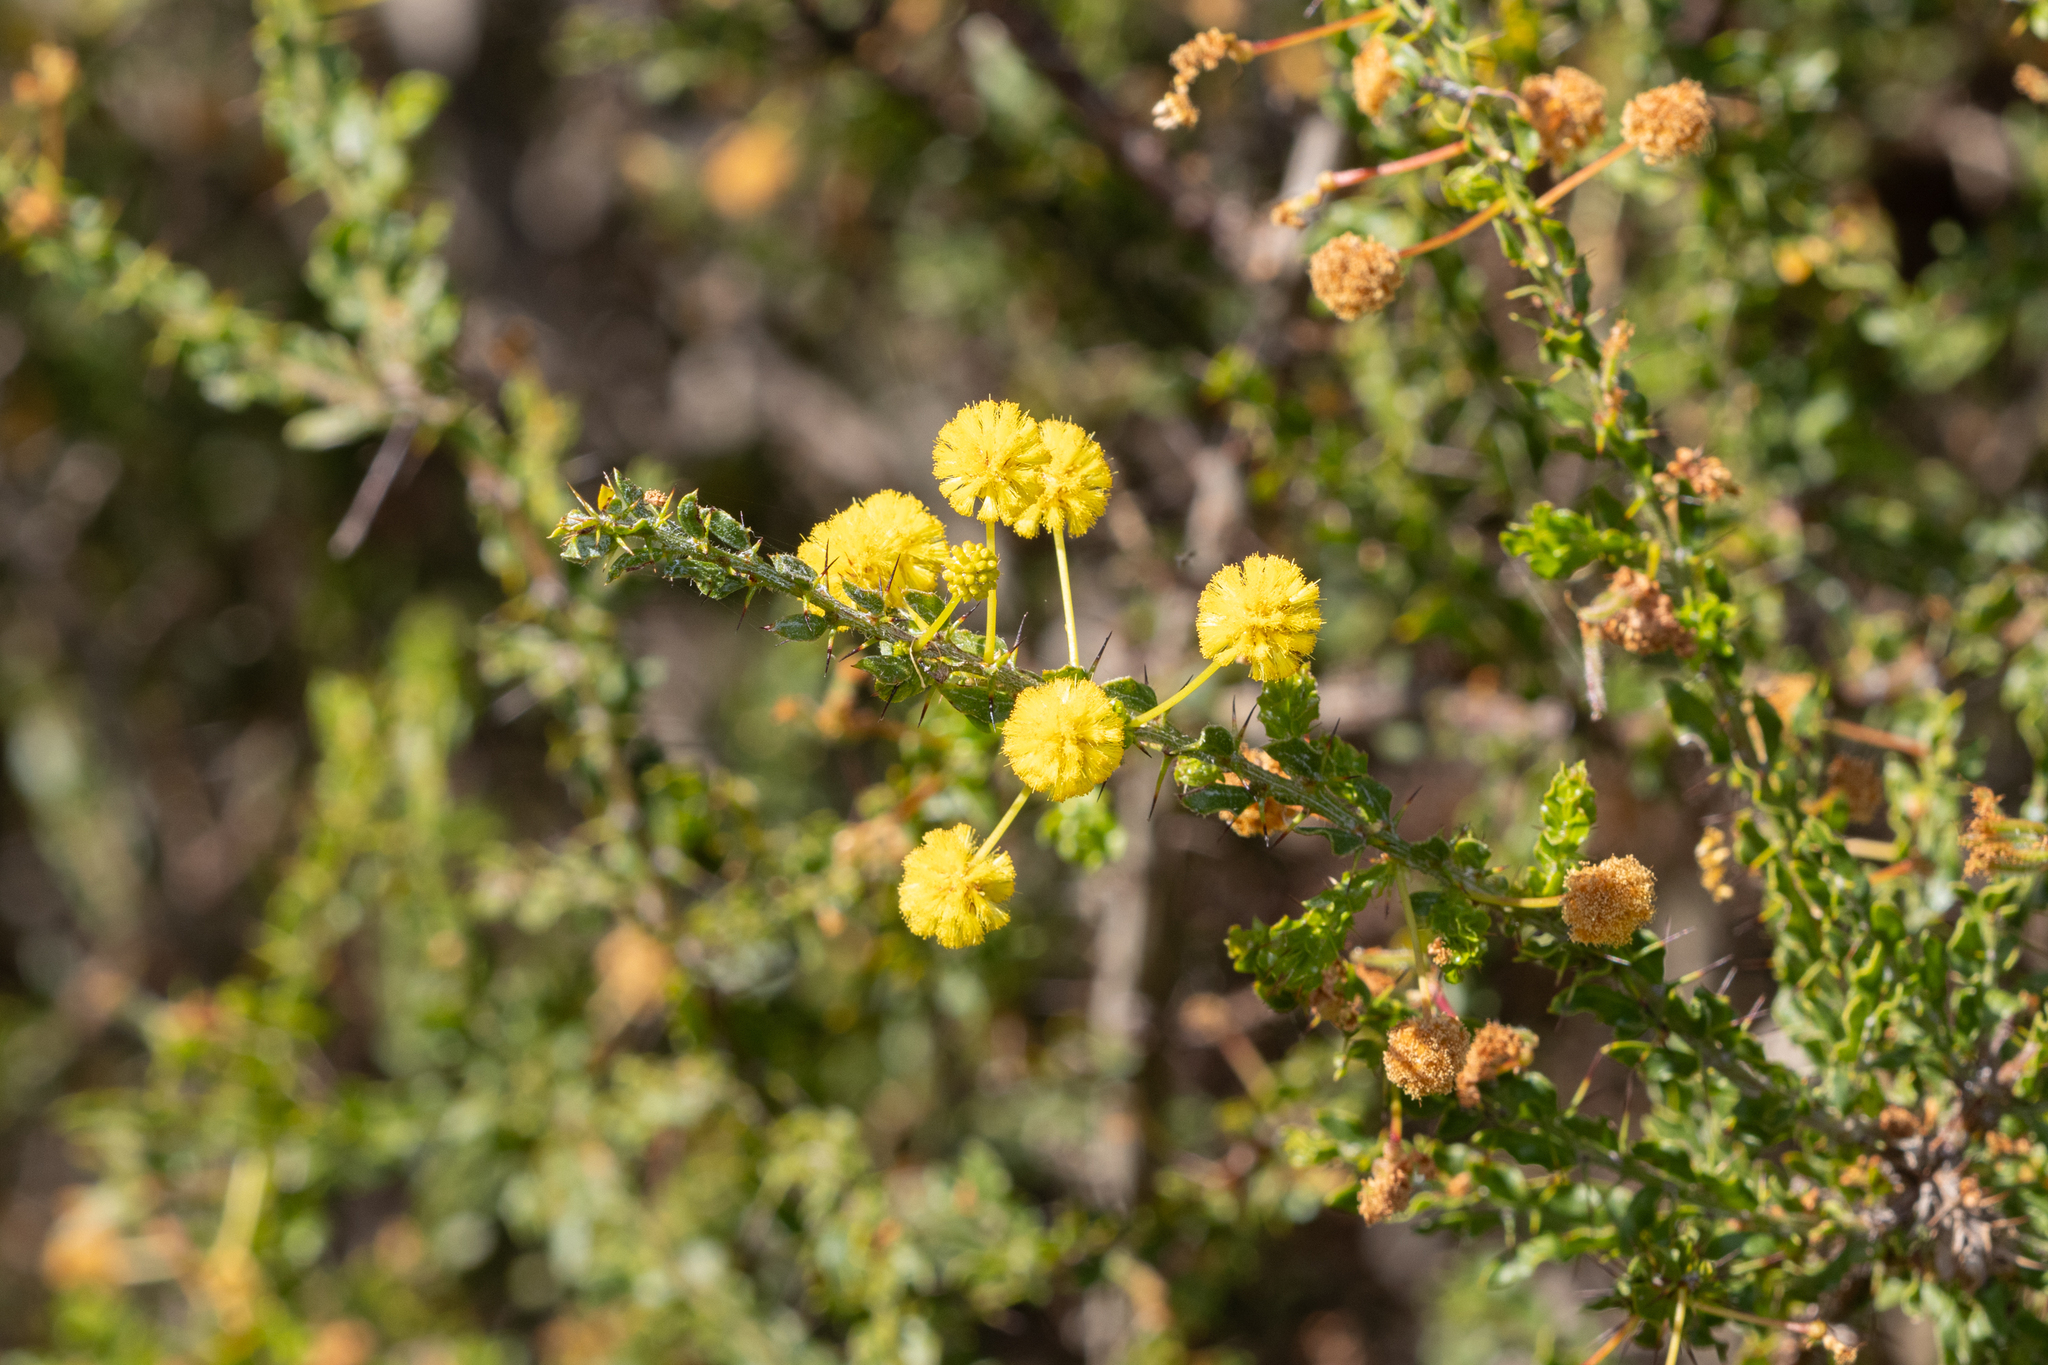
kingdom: Plantae
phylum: Tracheophyta
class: Magnoliopsida
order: Fabales
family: Fabaceae
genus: Acacia
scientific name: Acacia paradoxa
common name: Paradox acacia
